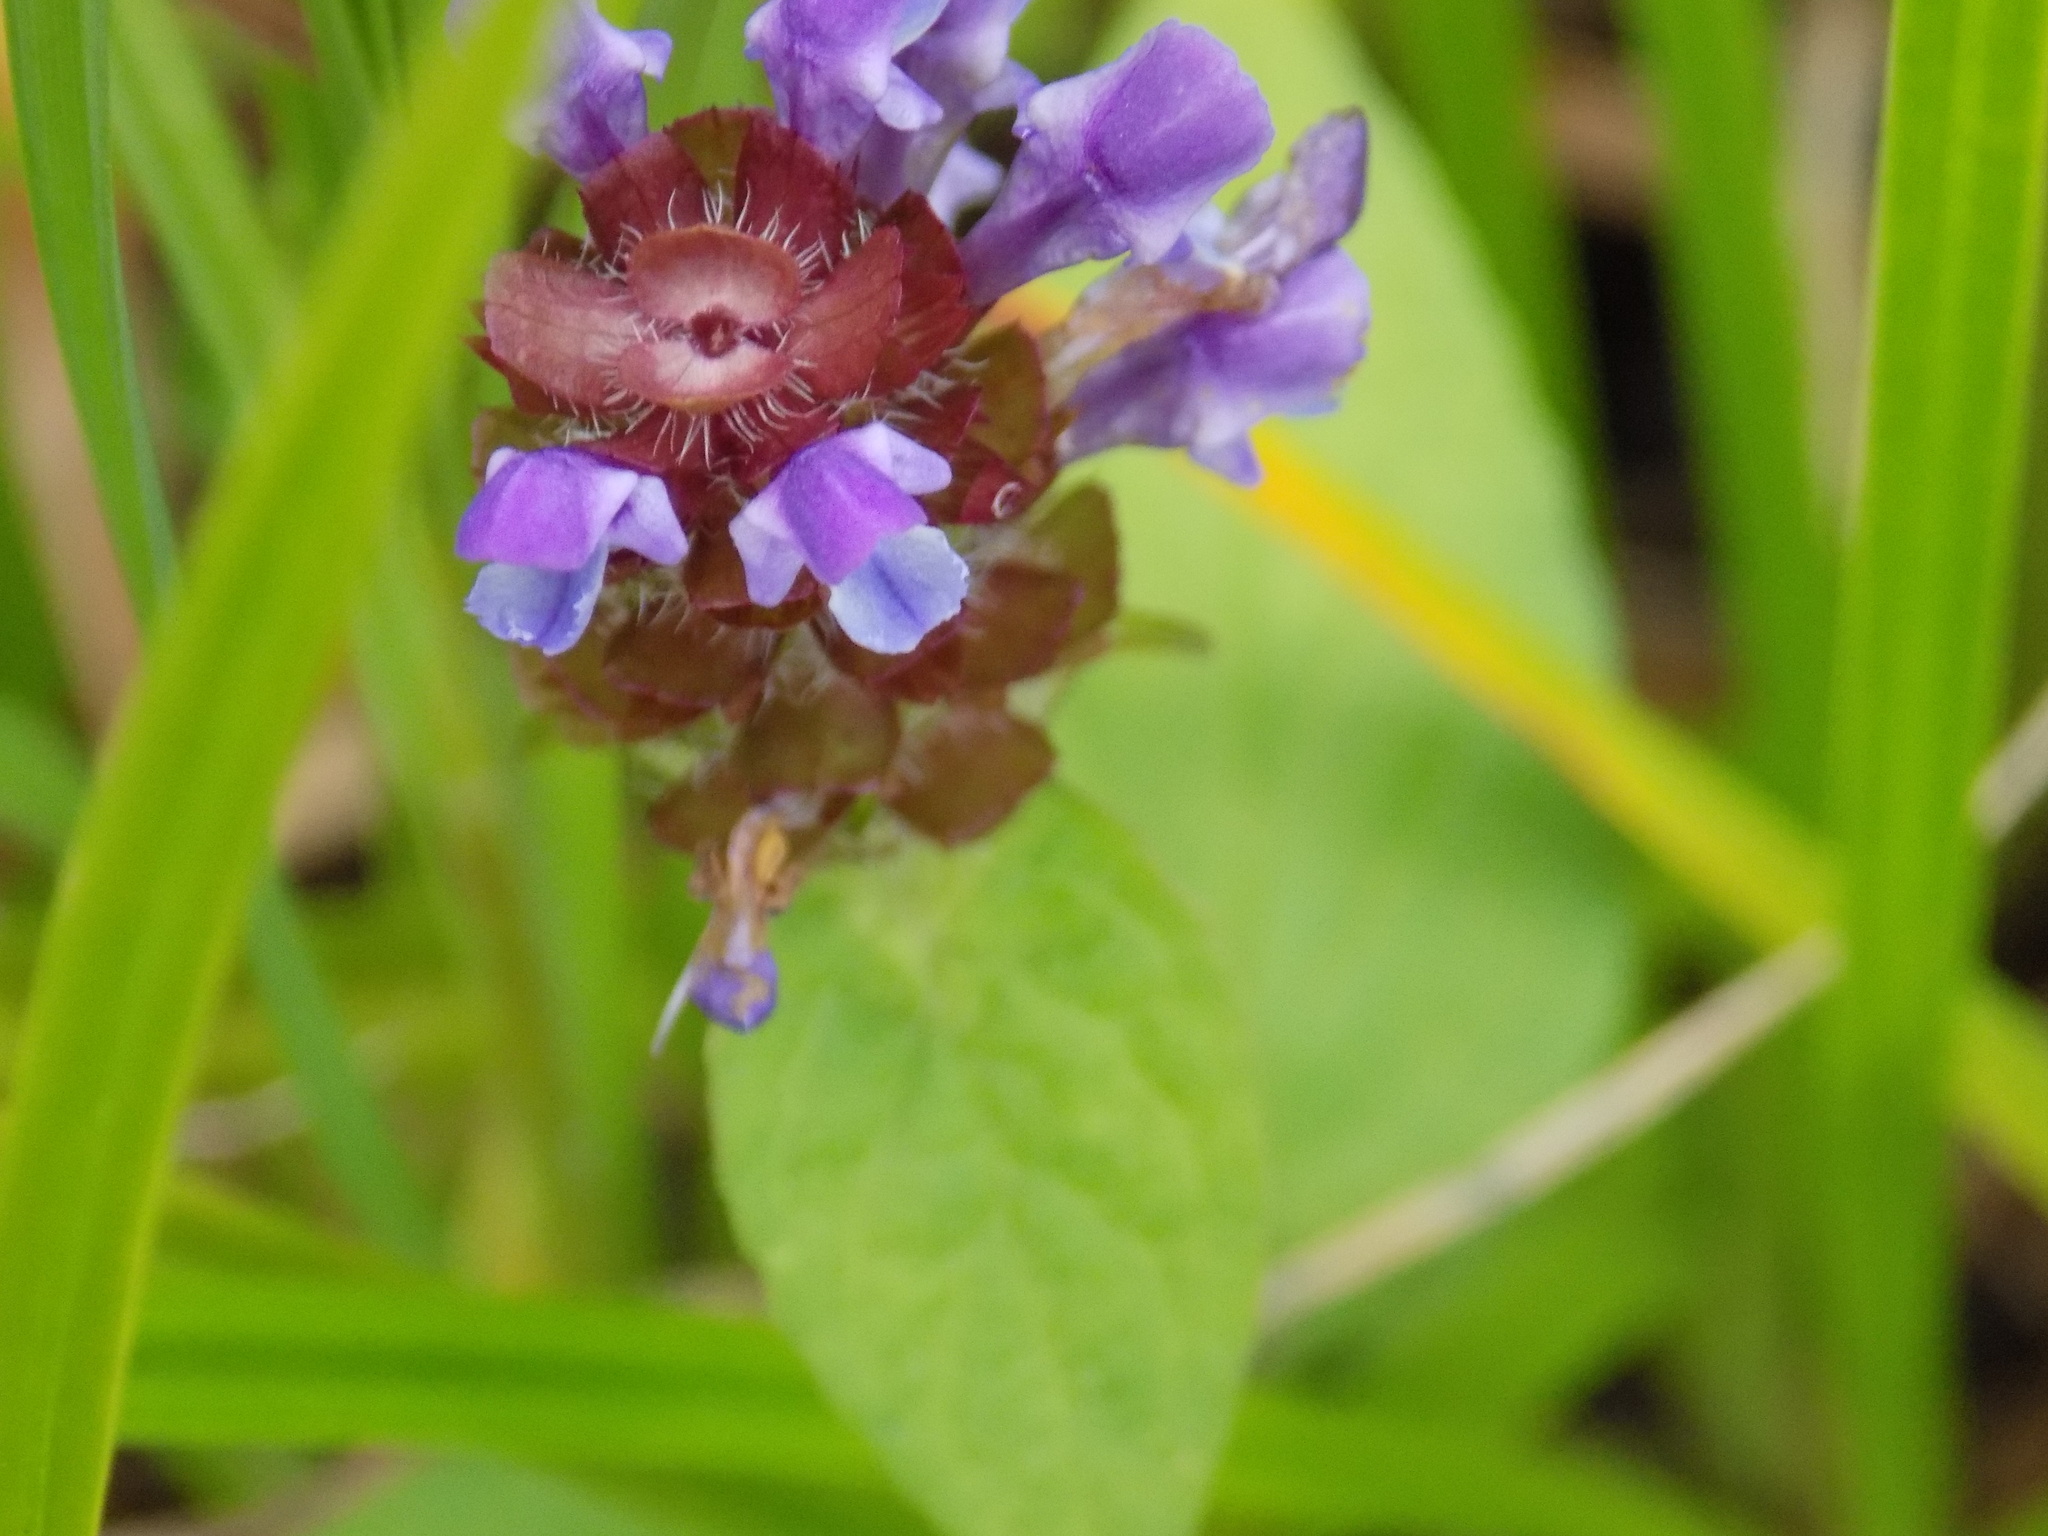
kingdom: Plantae
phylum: Tracheophyta
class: Magnoliopsida
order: Lamiales
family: Lamiaceae
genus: Prunella
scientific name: Prunella vulgaris
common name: Heal-all
